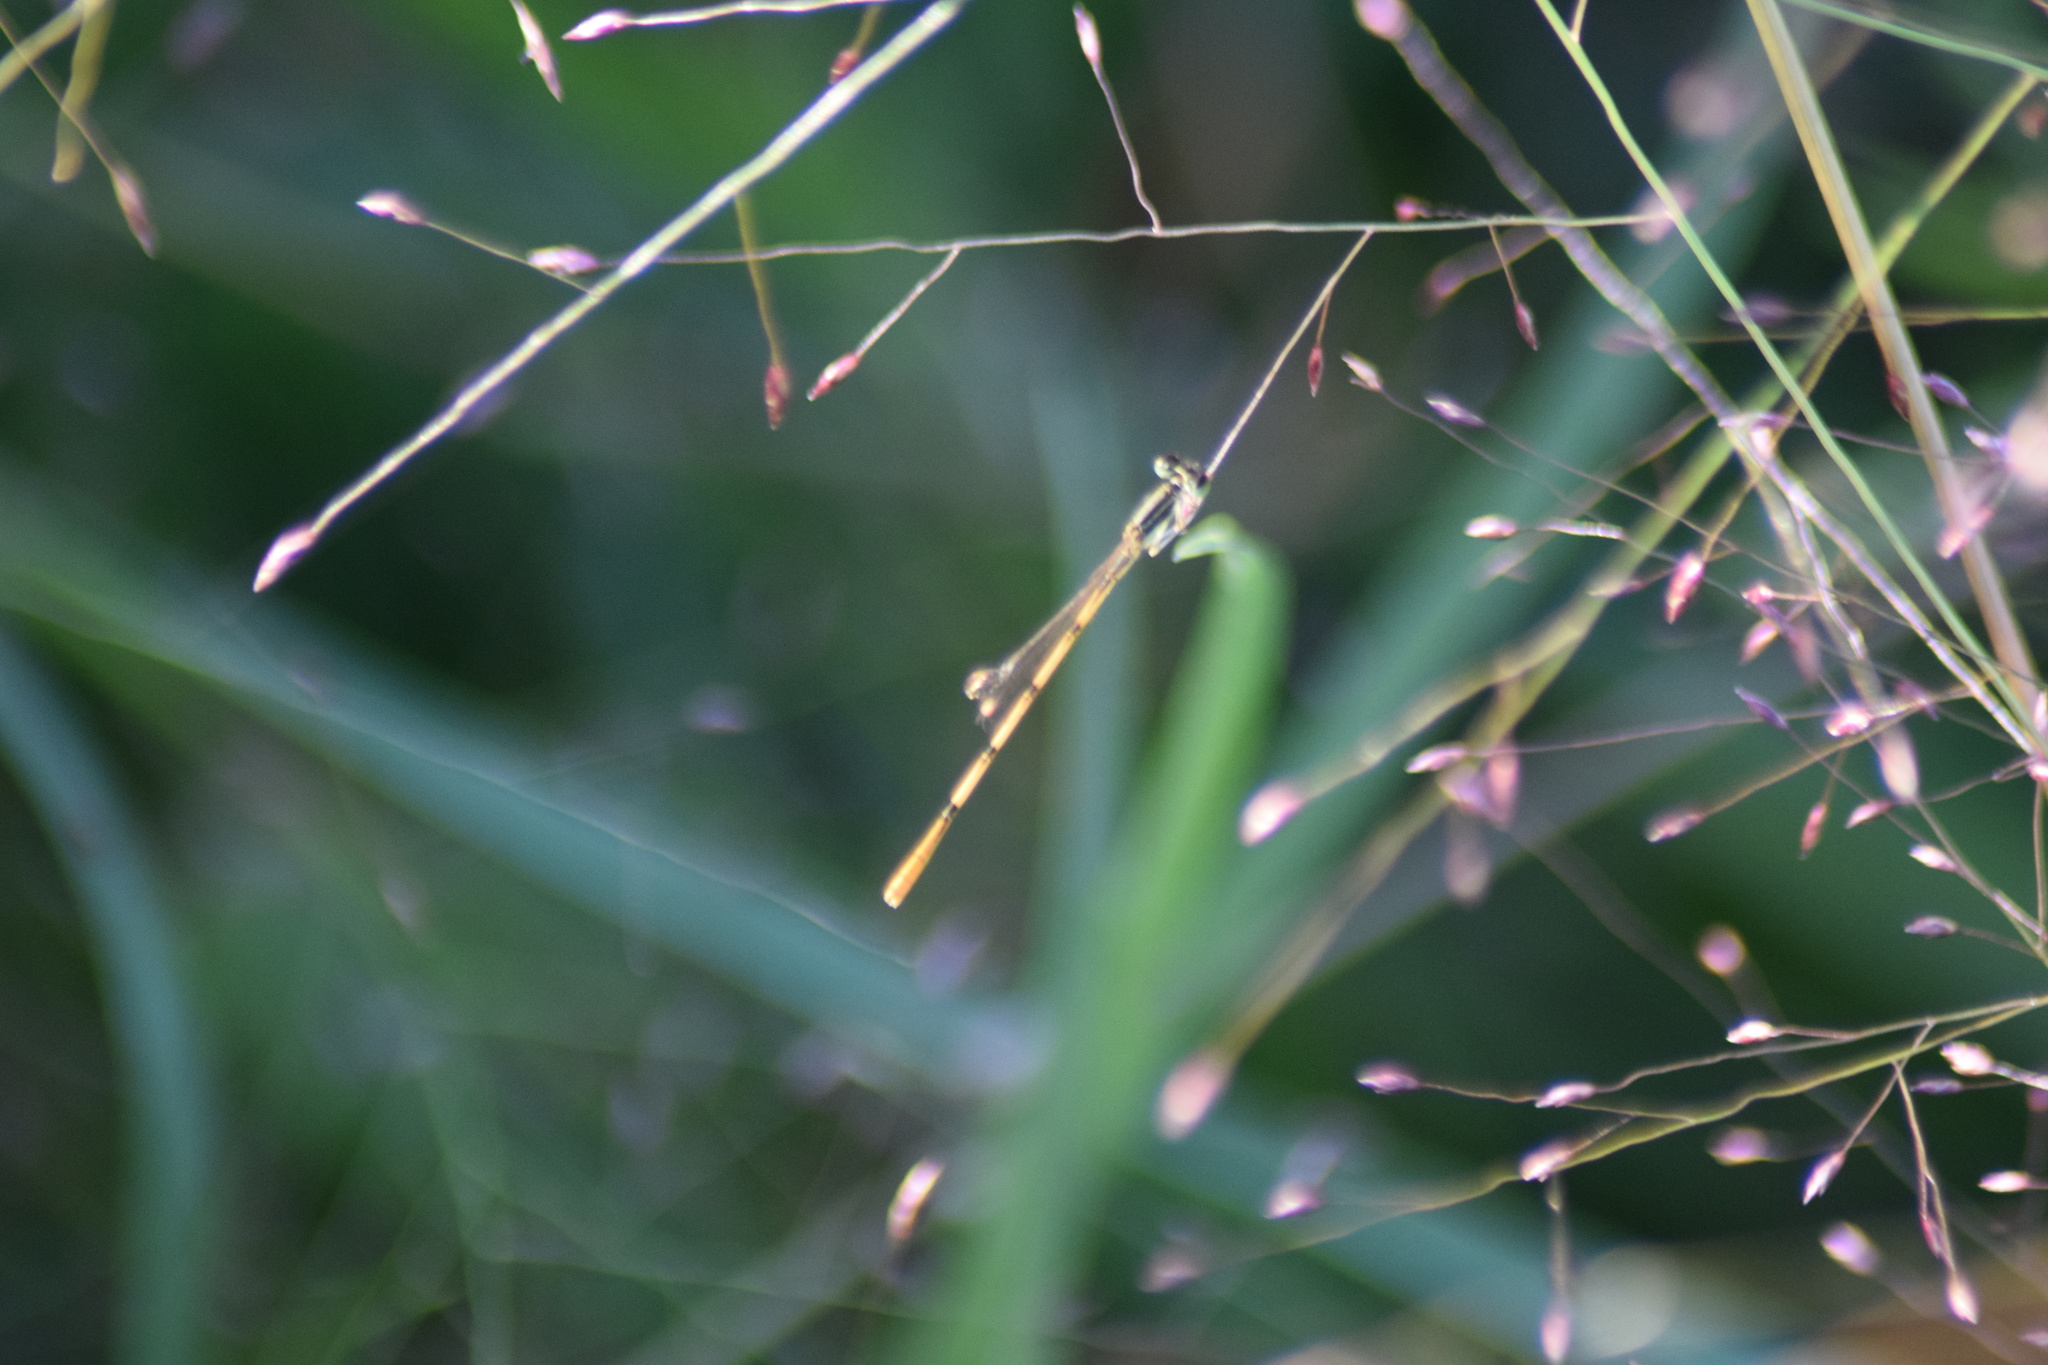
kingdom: Animalia
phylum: Arthropoda
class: Insecta
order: Odonata
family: Coenagrionidae
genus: Ischnura
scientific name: Ischnura hastata
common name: Citrine forktail
